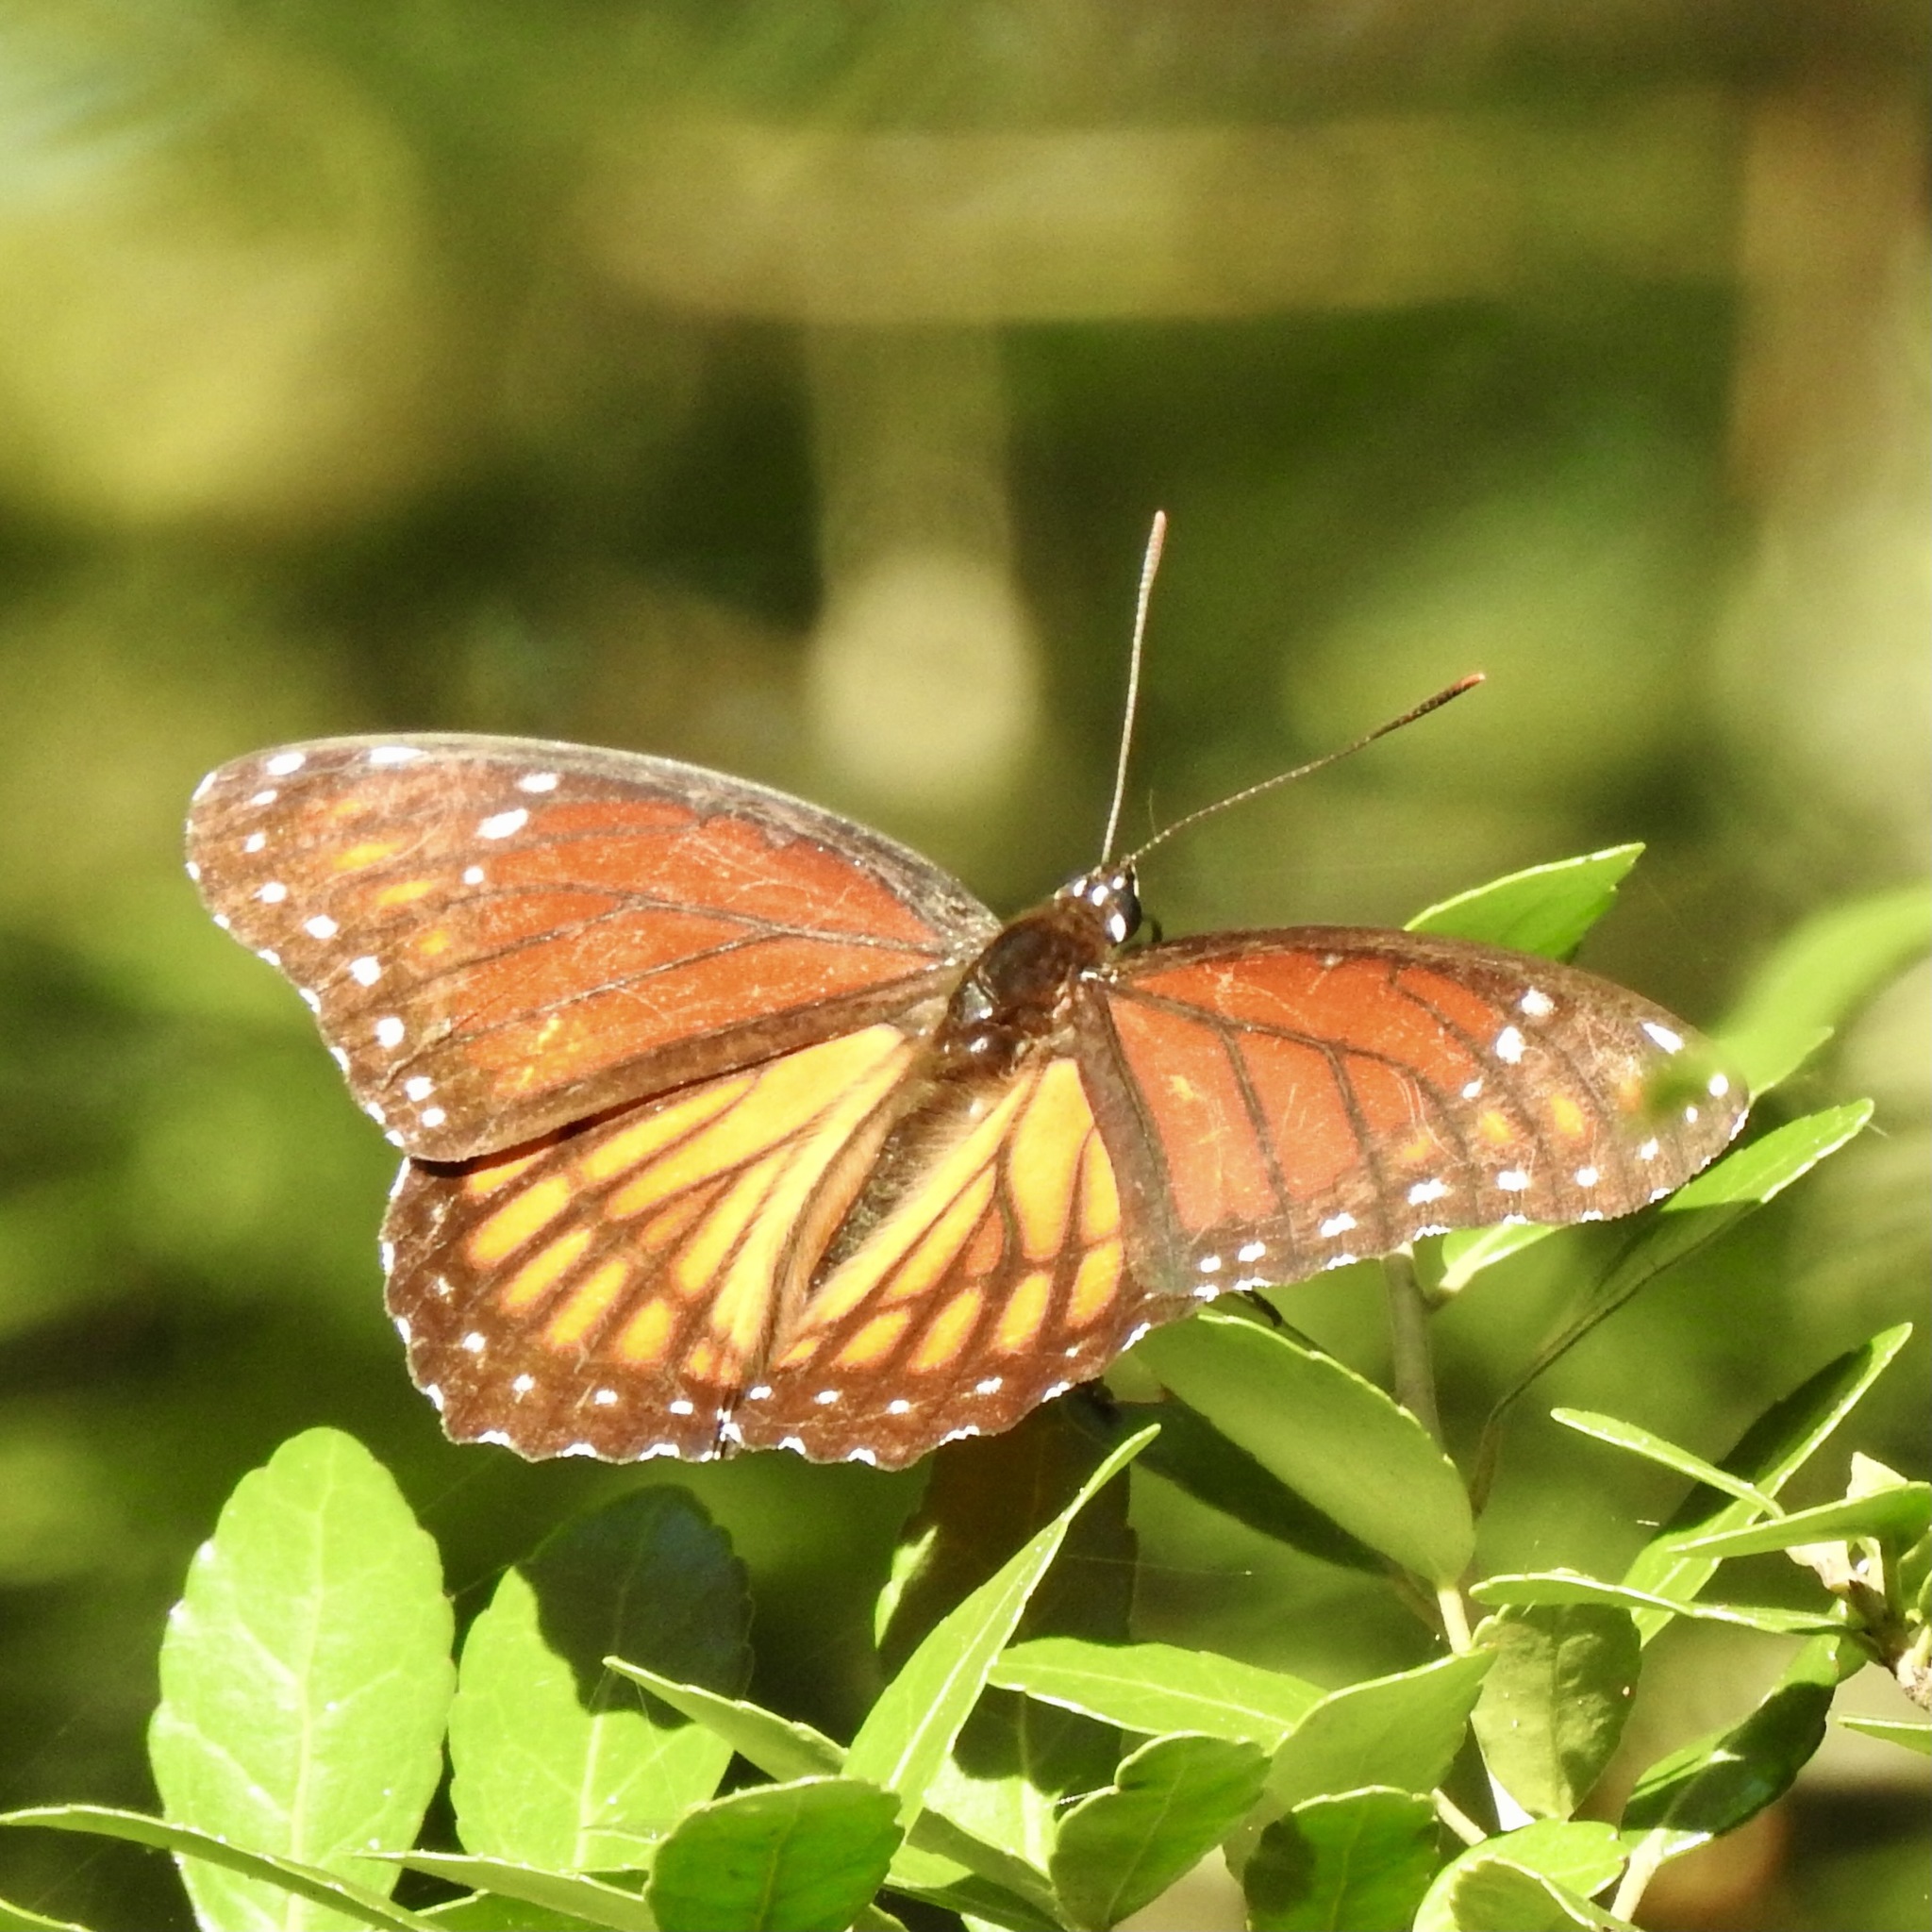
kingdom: Animalia
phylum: Arthropoda
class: Insecta
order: Lepidoptera
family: Nymphalidae
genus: Limenitis
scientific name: Limenitis archippus
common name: Viceroy
